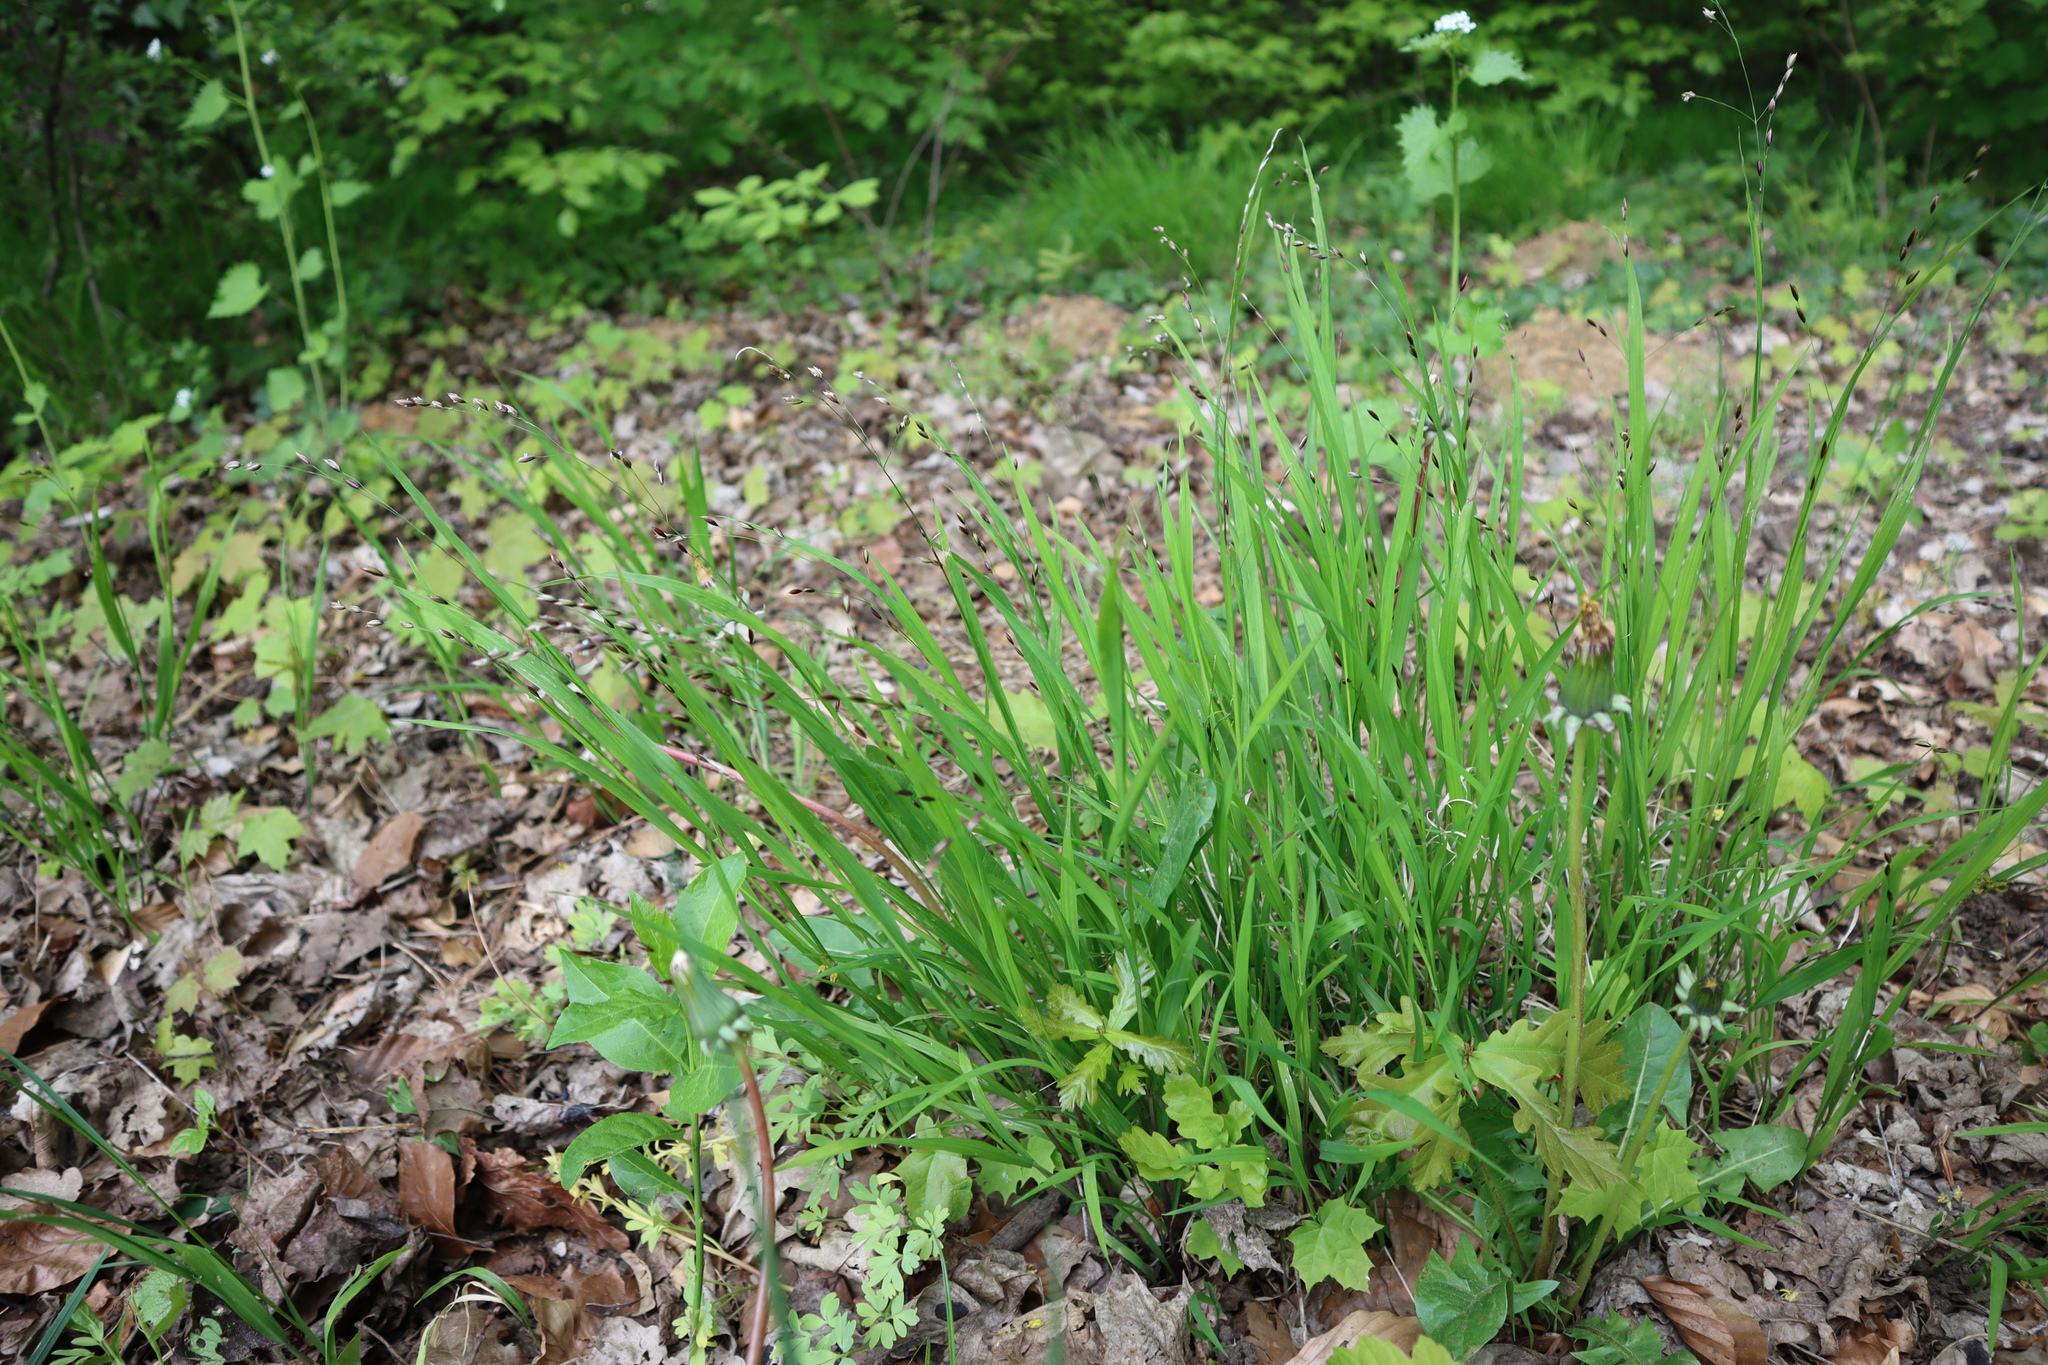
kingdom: Plantae
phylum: Tracheophyta
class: Liliopsida
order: Poales
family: Poaceae
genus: Melica
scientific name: Melica uniflora
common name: Wood melick
